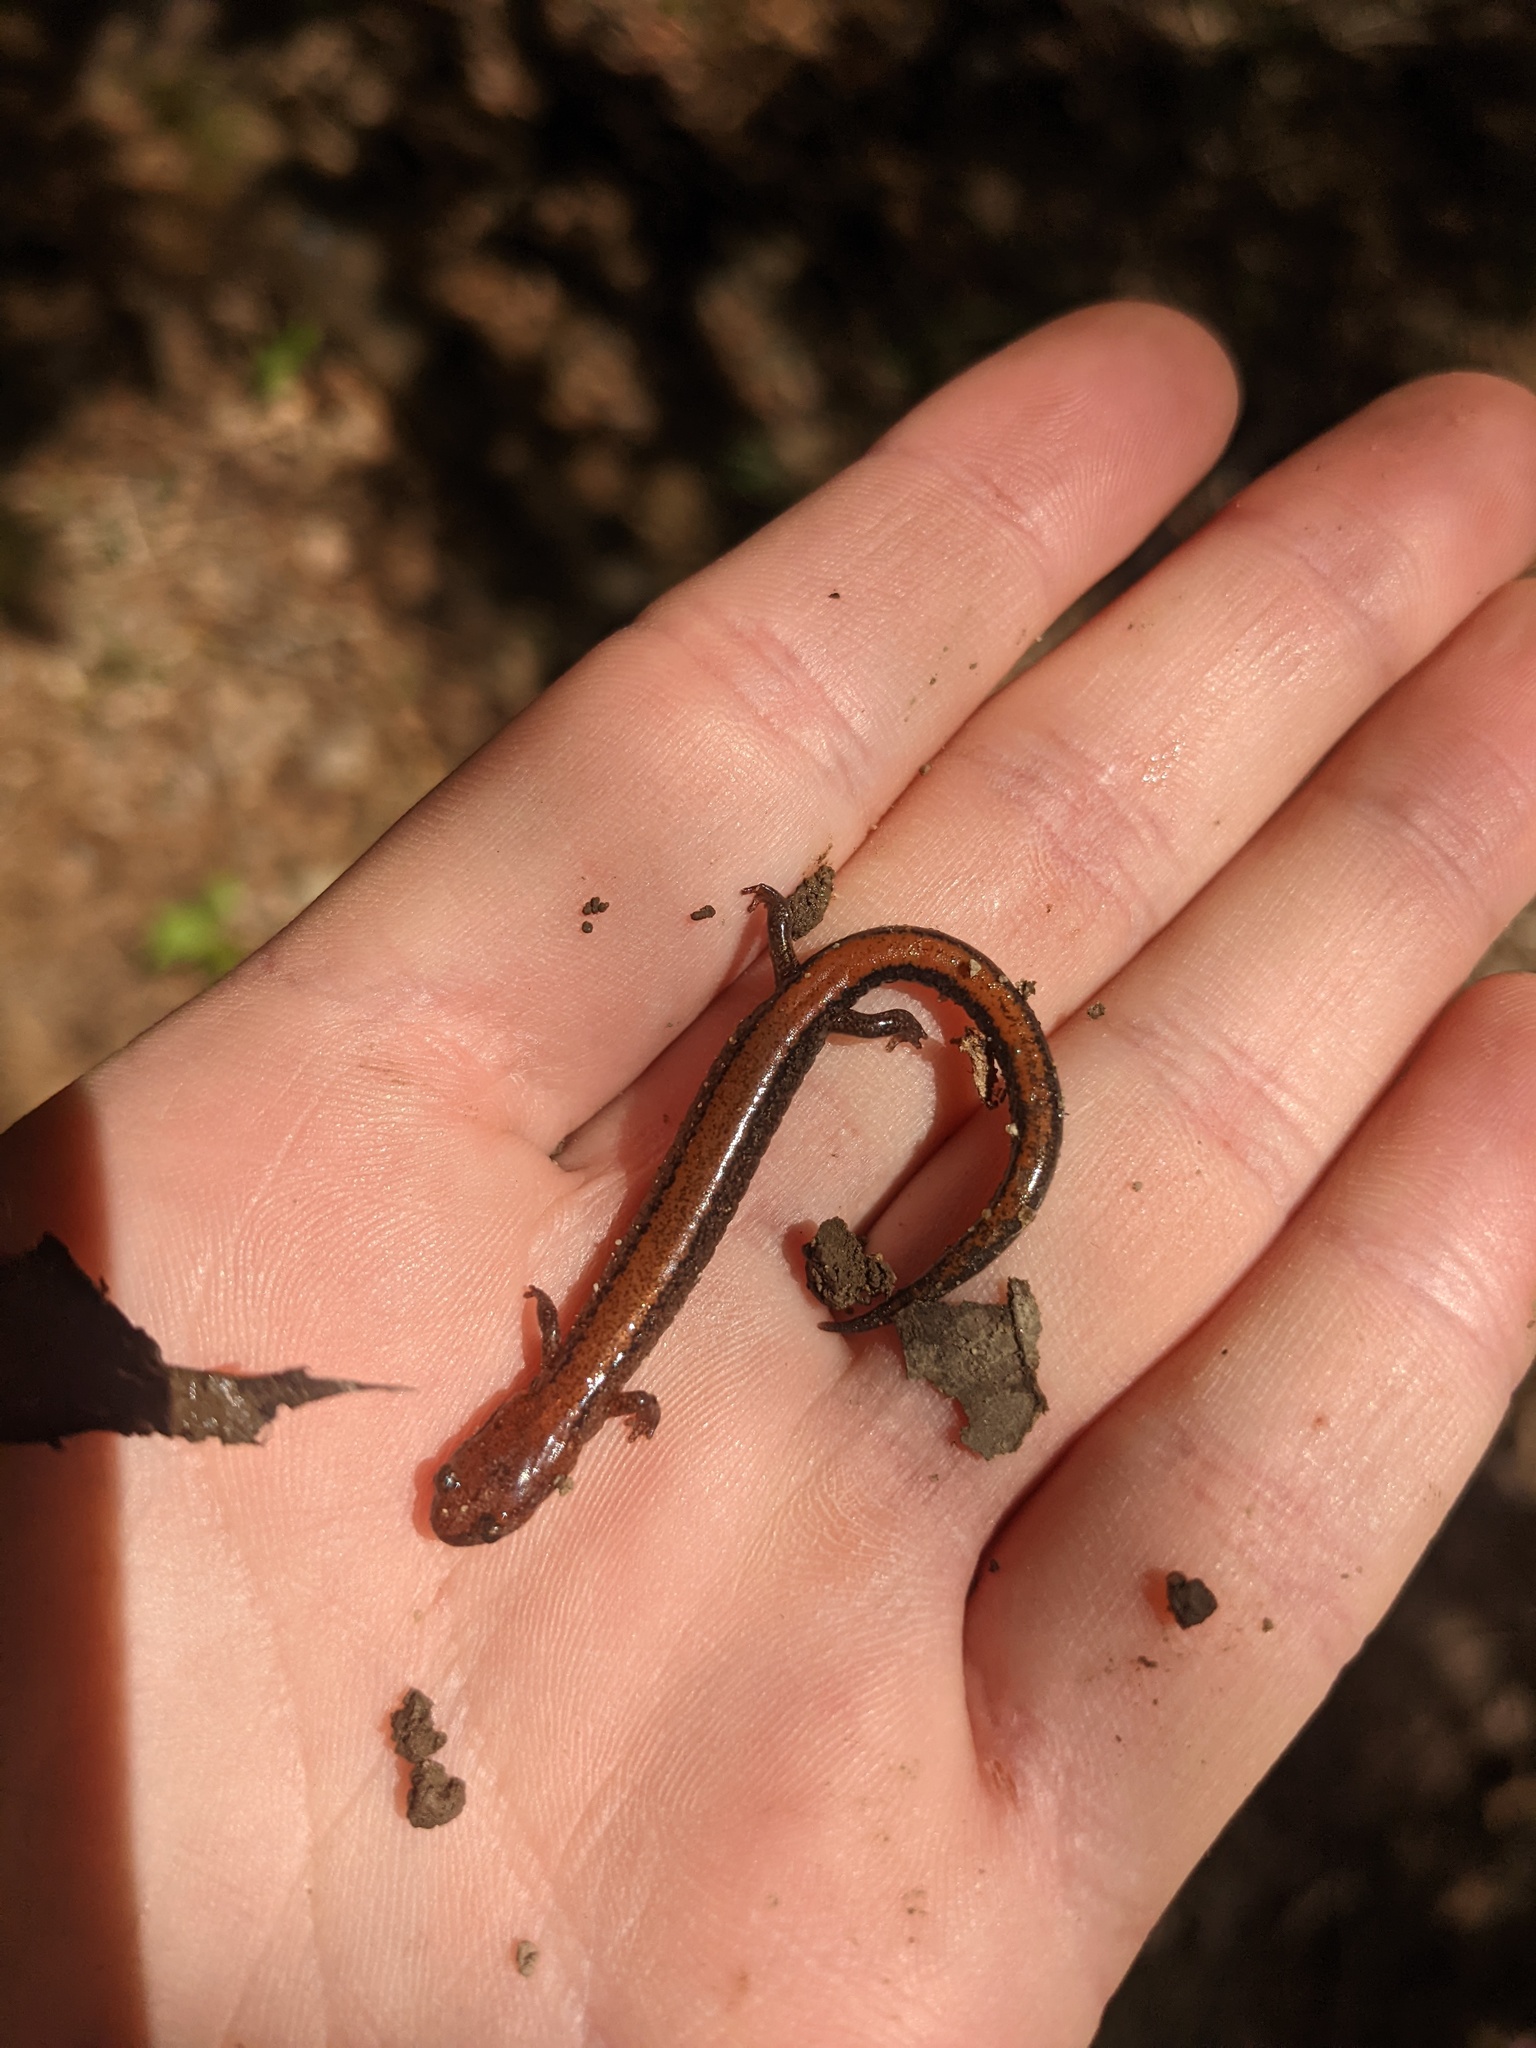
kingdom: Animalia
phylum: Chordata
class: Amphibia
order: Caudata
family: Plethodontidae
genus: Plethodon
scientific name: Plethodon cinereus
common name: Redback salamander
